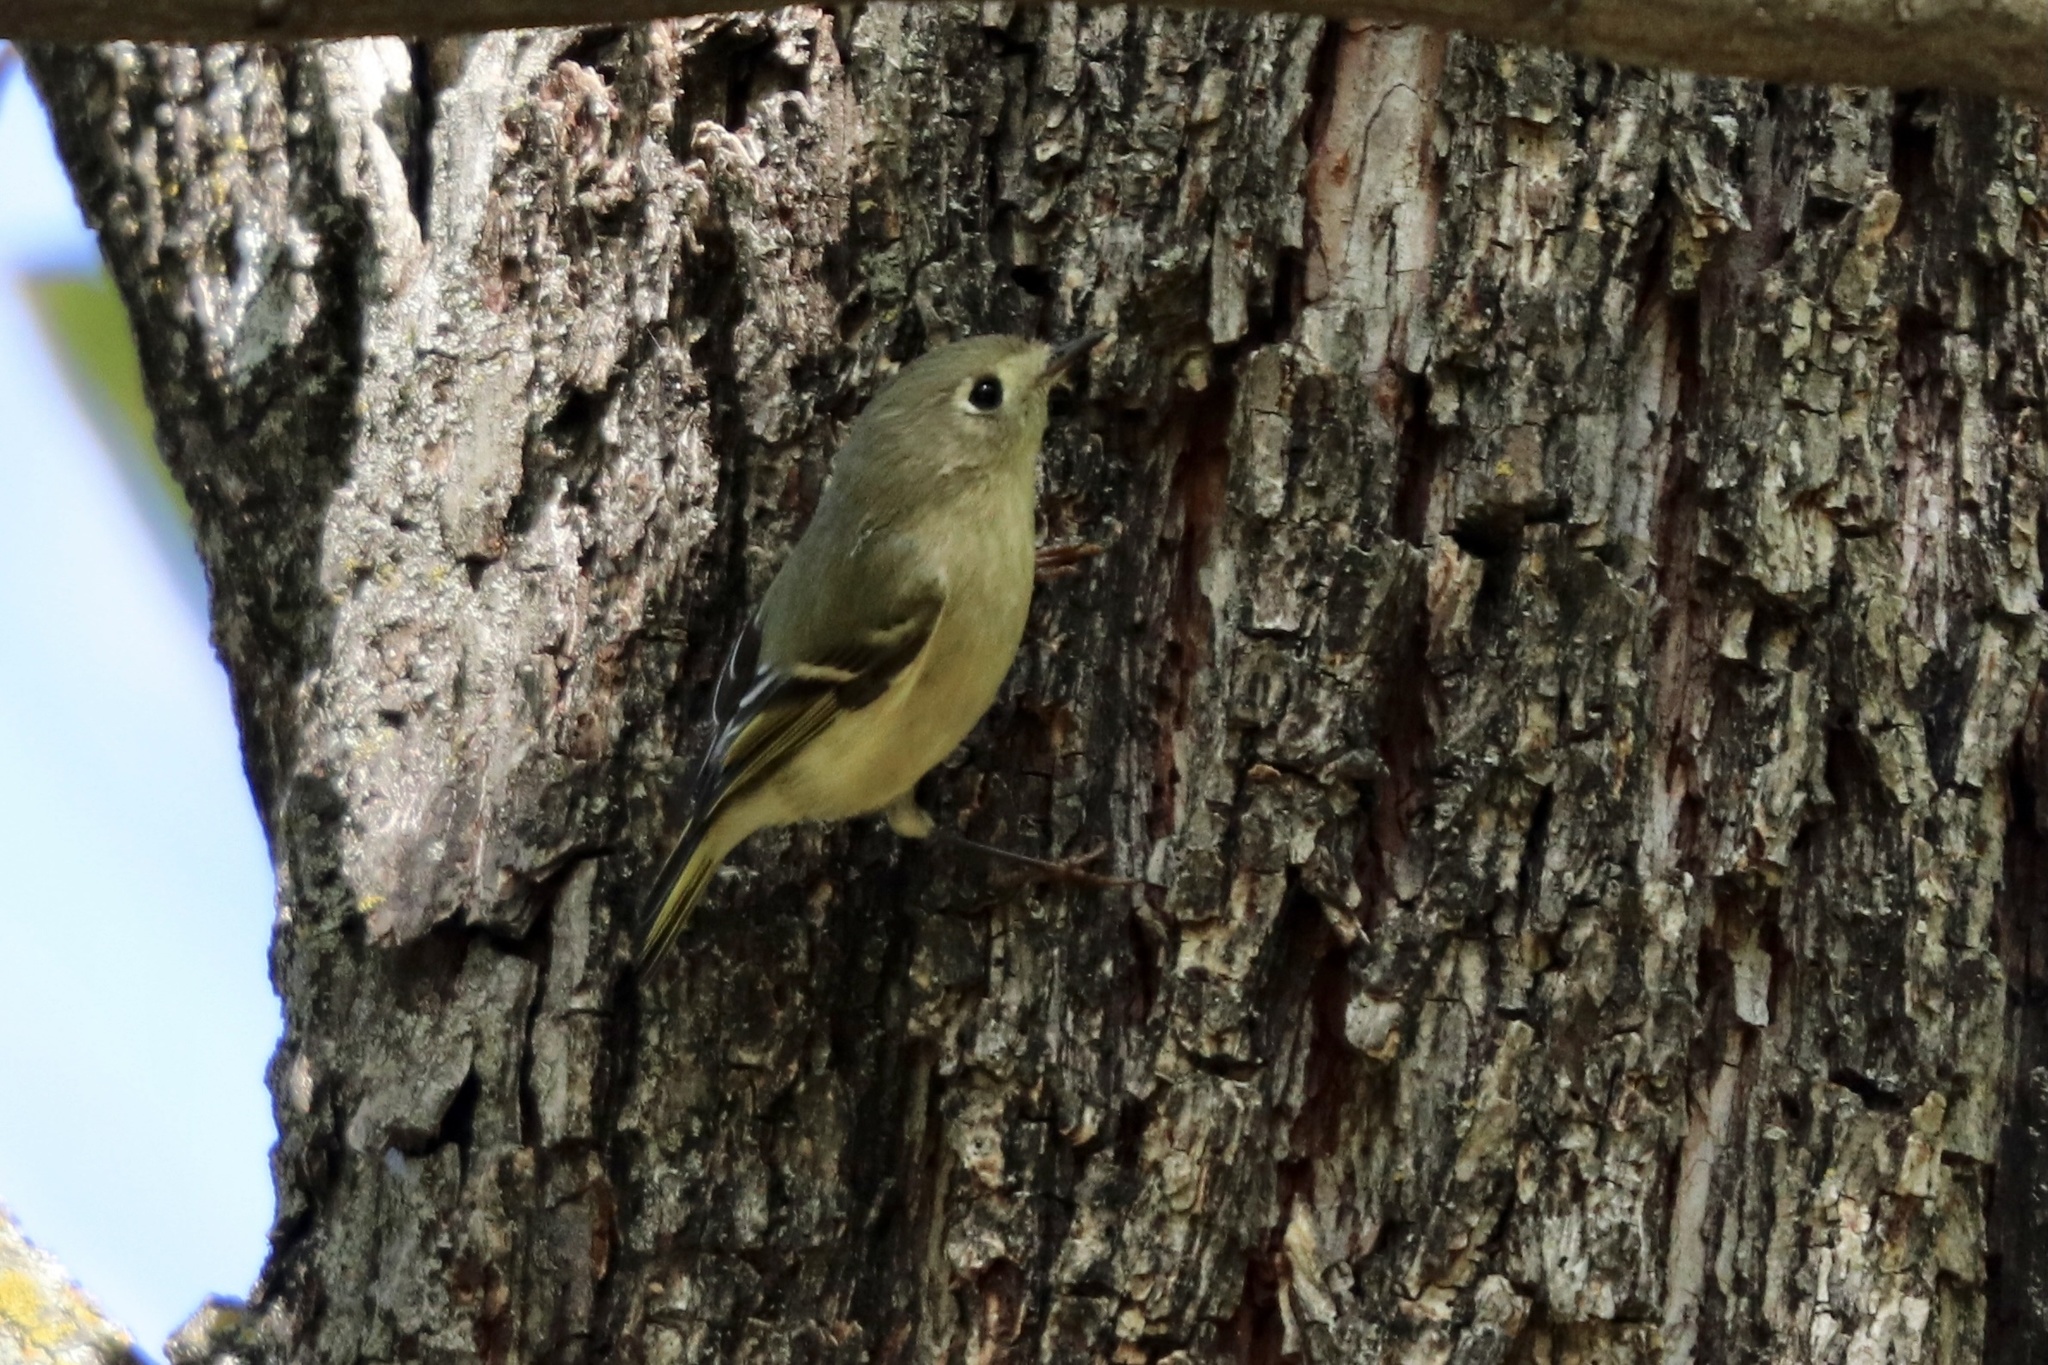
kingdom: Animalia
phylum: Chordata
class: Aves
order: Passeriformes
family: Regulidae
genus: Regulus
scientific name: Regulus calendula
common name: Ruby-crowned kinglet
